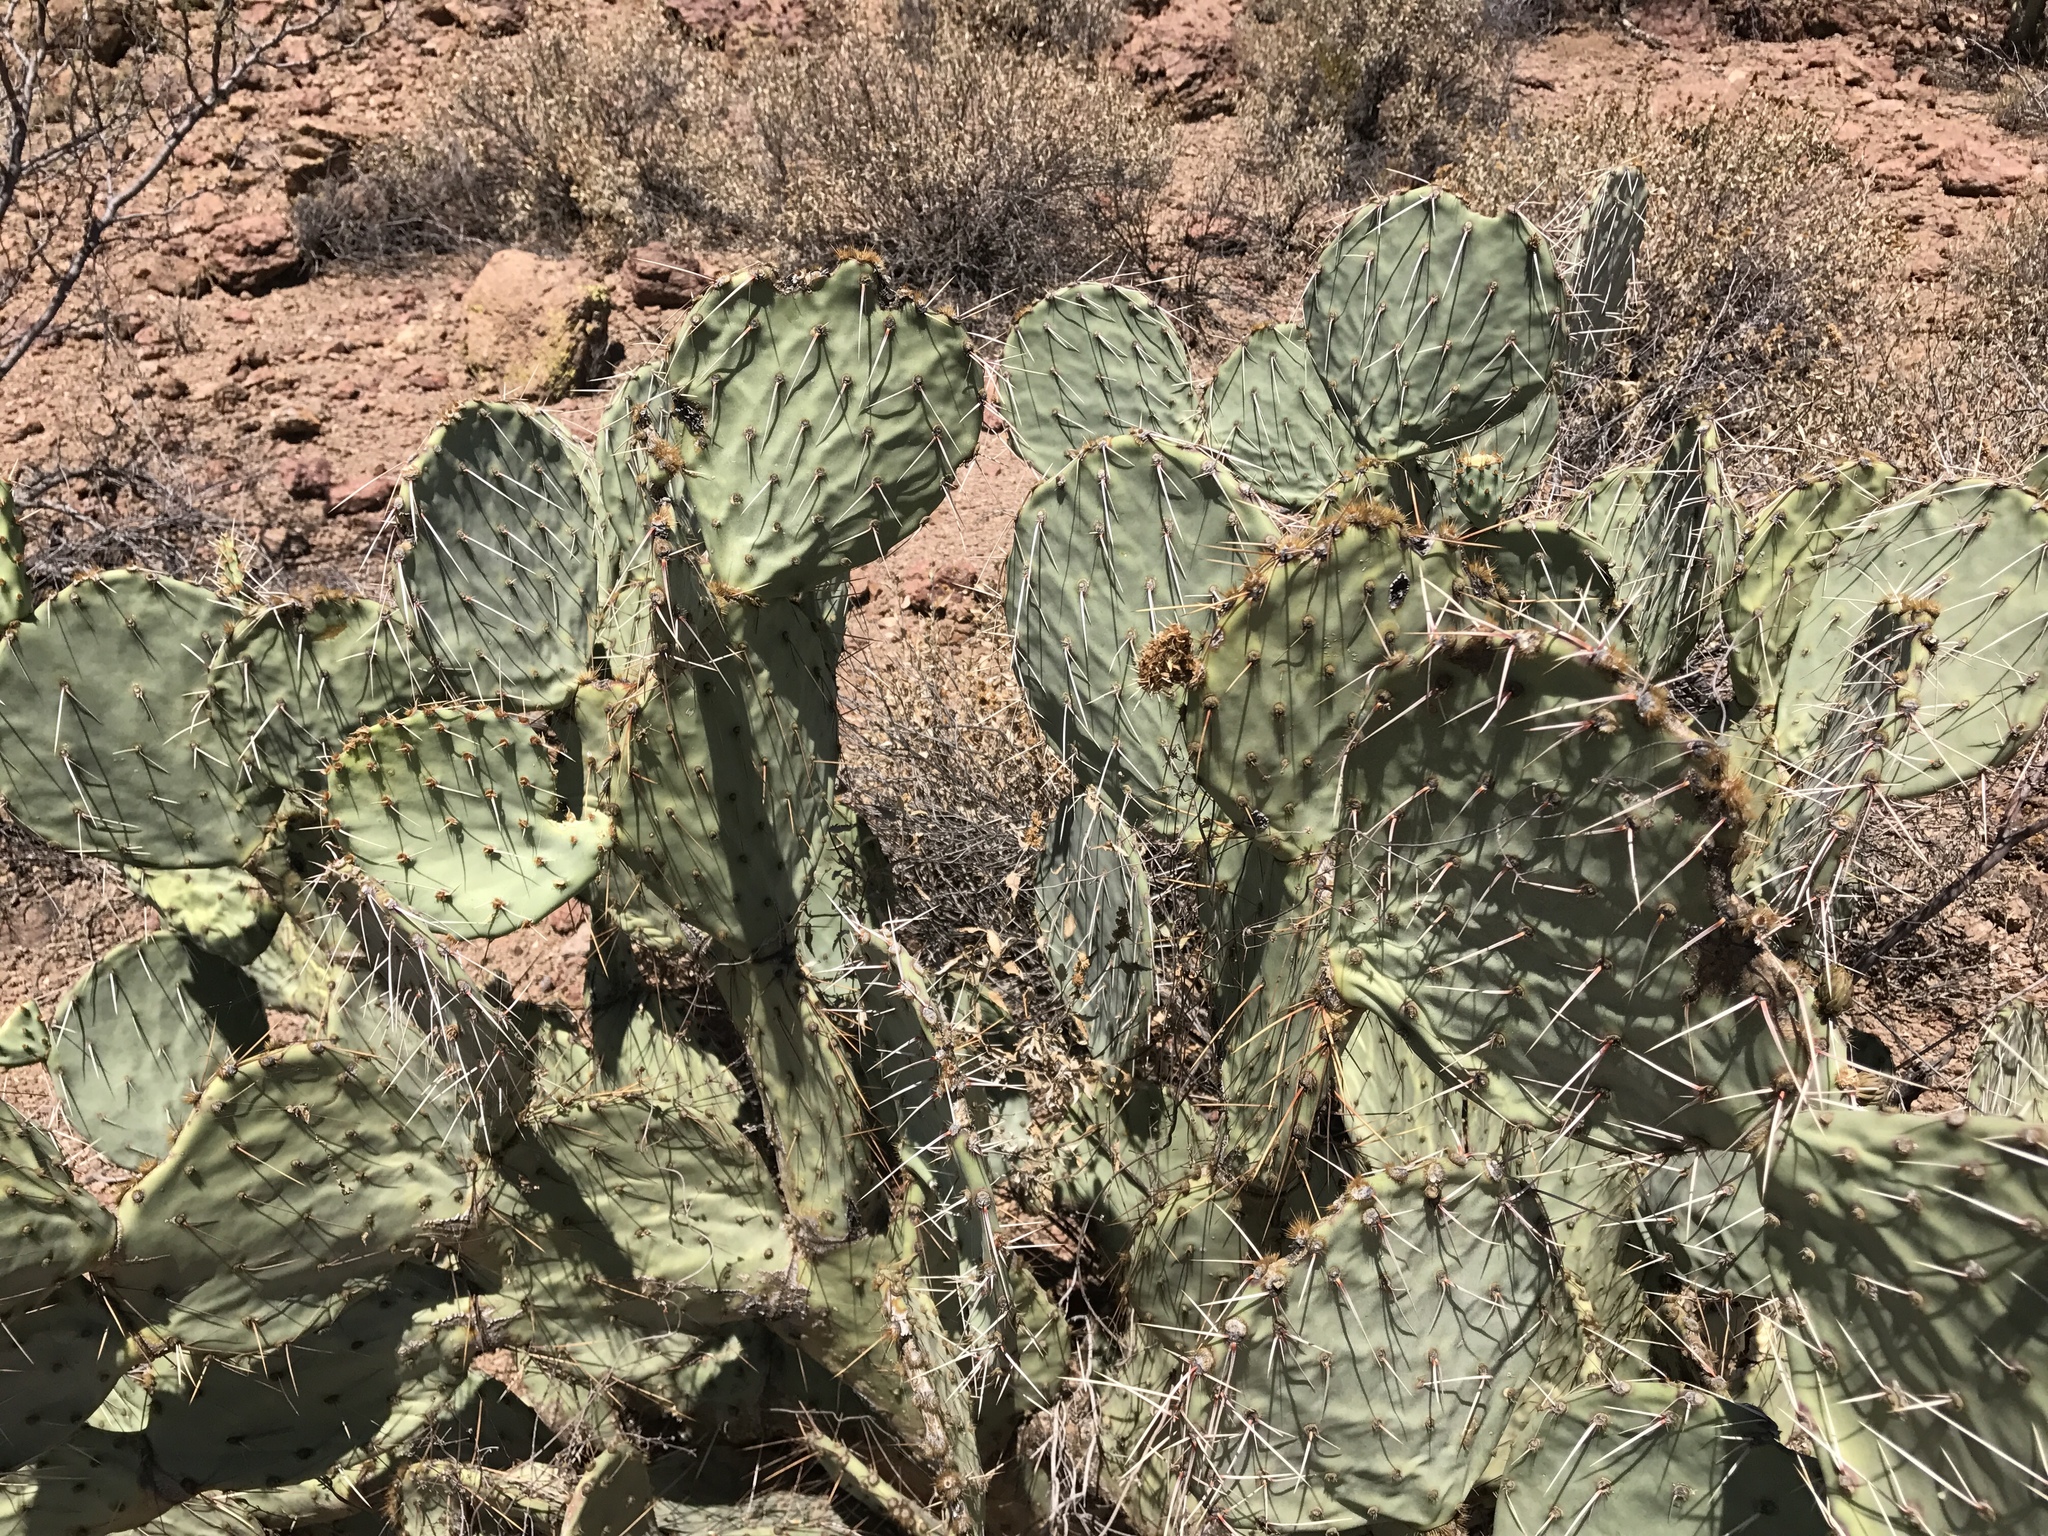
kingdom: Plantae
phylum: Tracheophyta
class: Magnoliopsida
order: Caryophyllales
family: Cactaceae
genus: Opuntia
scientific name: Opuntia engelmannii
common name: Cactus-apple
